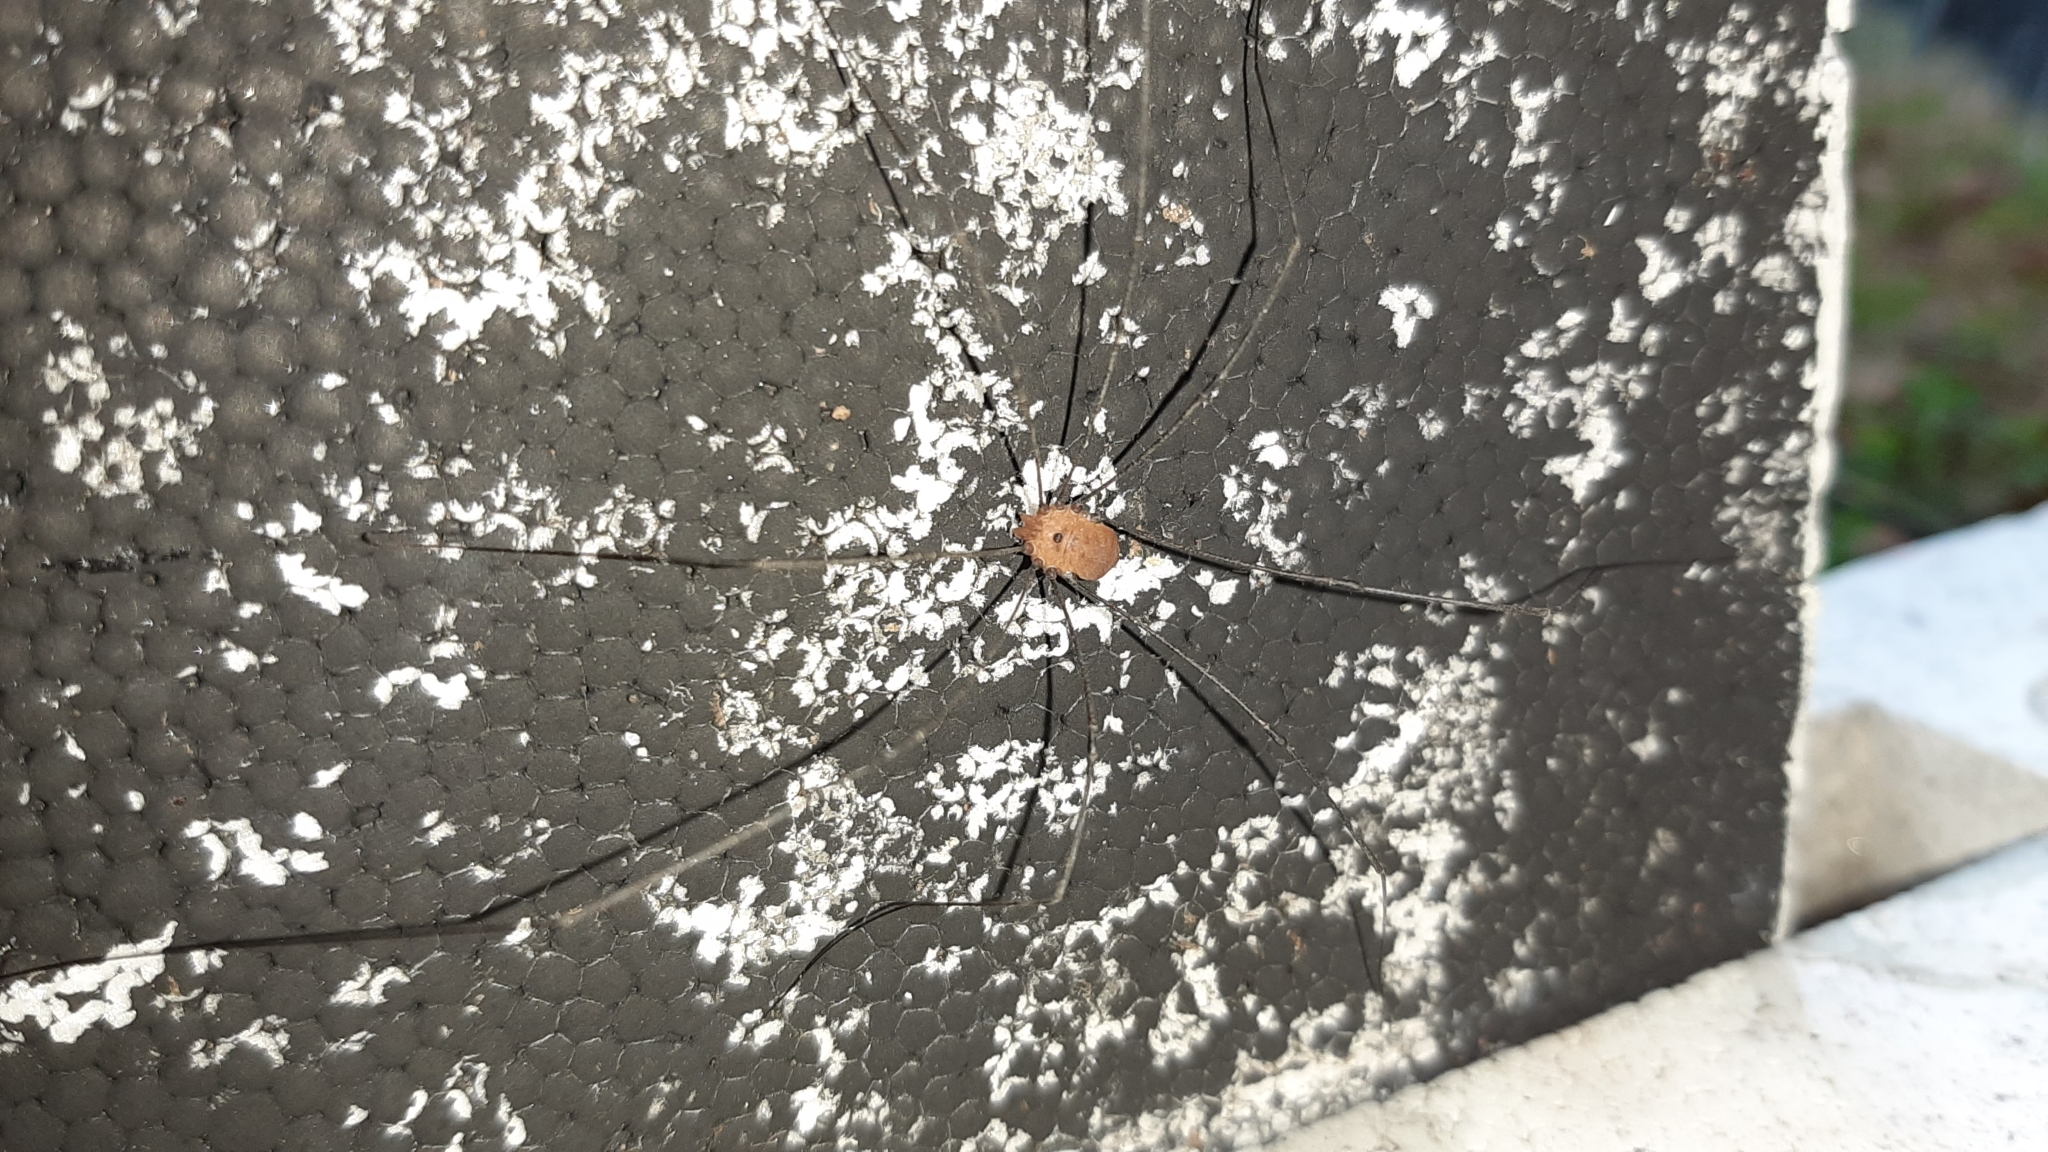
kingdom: Animalia
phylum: Arthropoda
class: Arachnida
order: Opiliones
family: Sclerosomatidae
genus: Leiobunum
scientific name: Leiobunum uxorium
